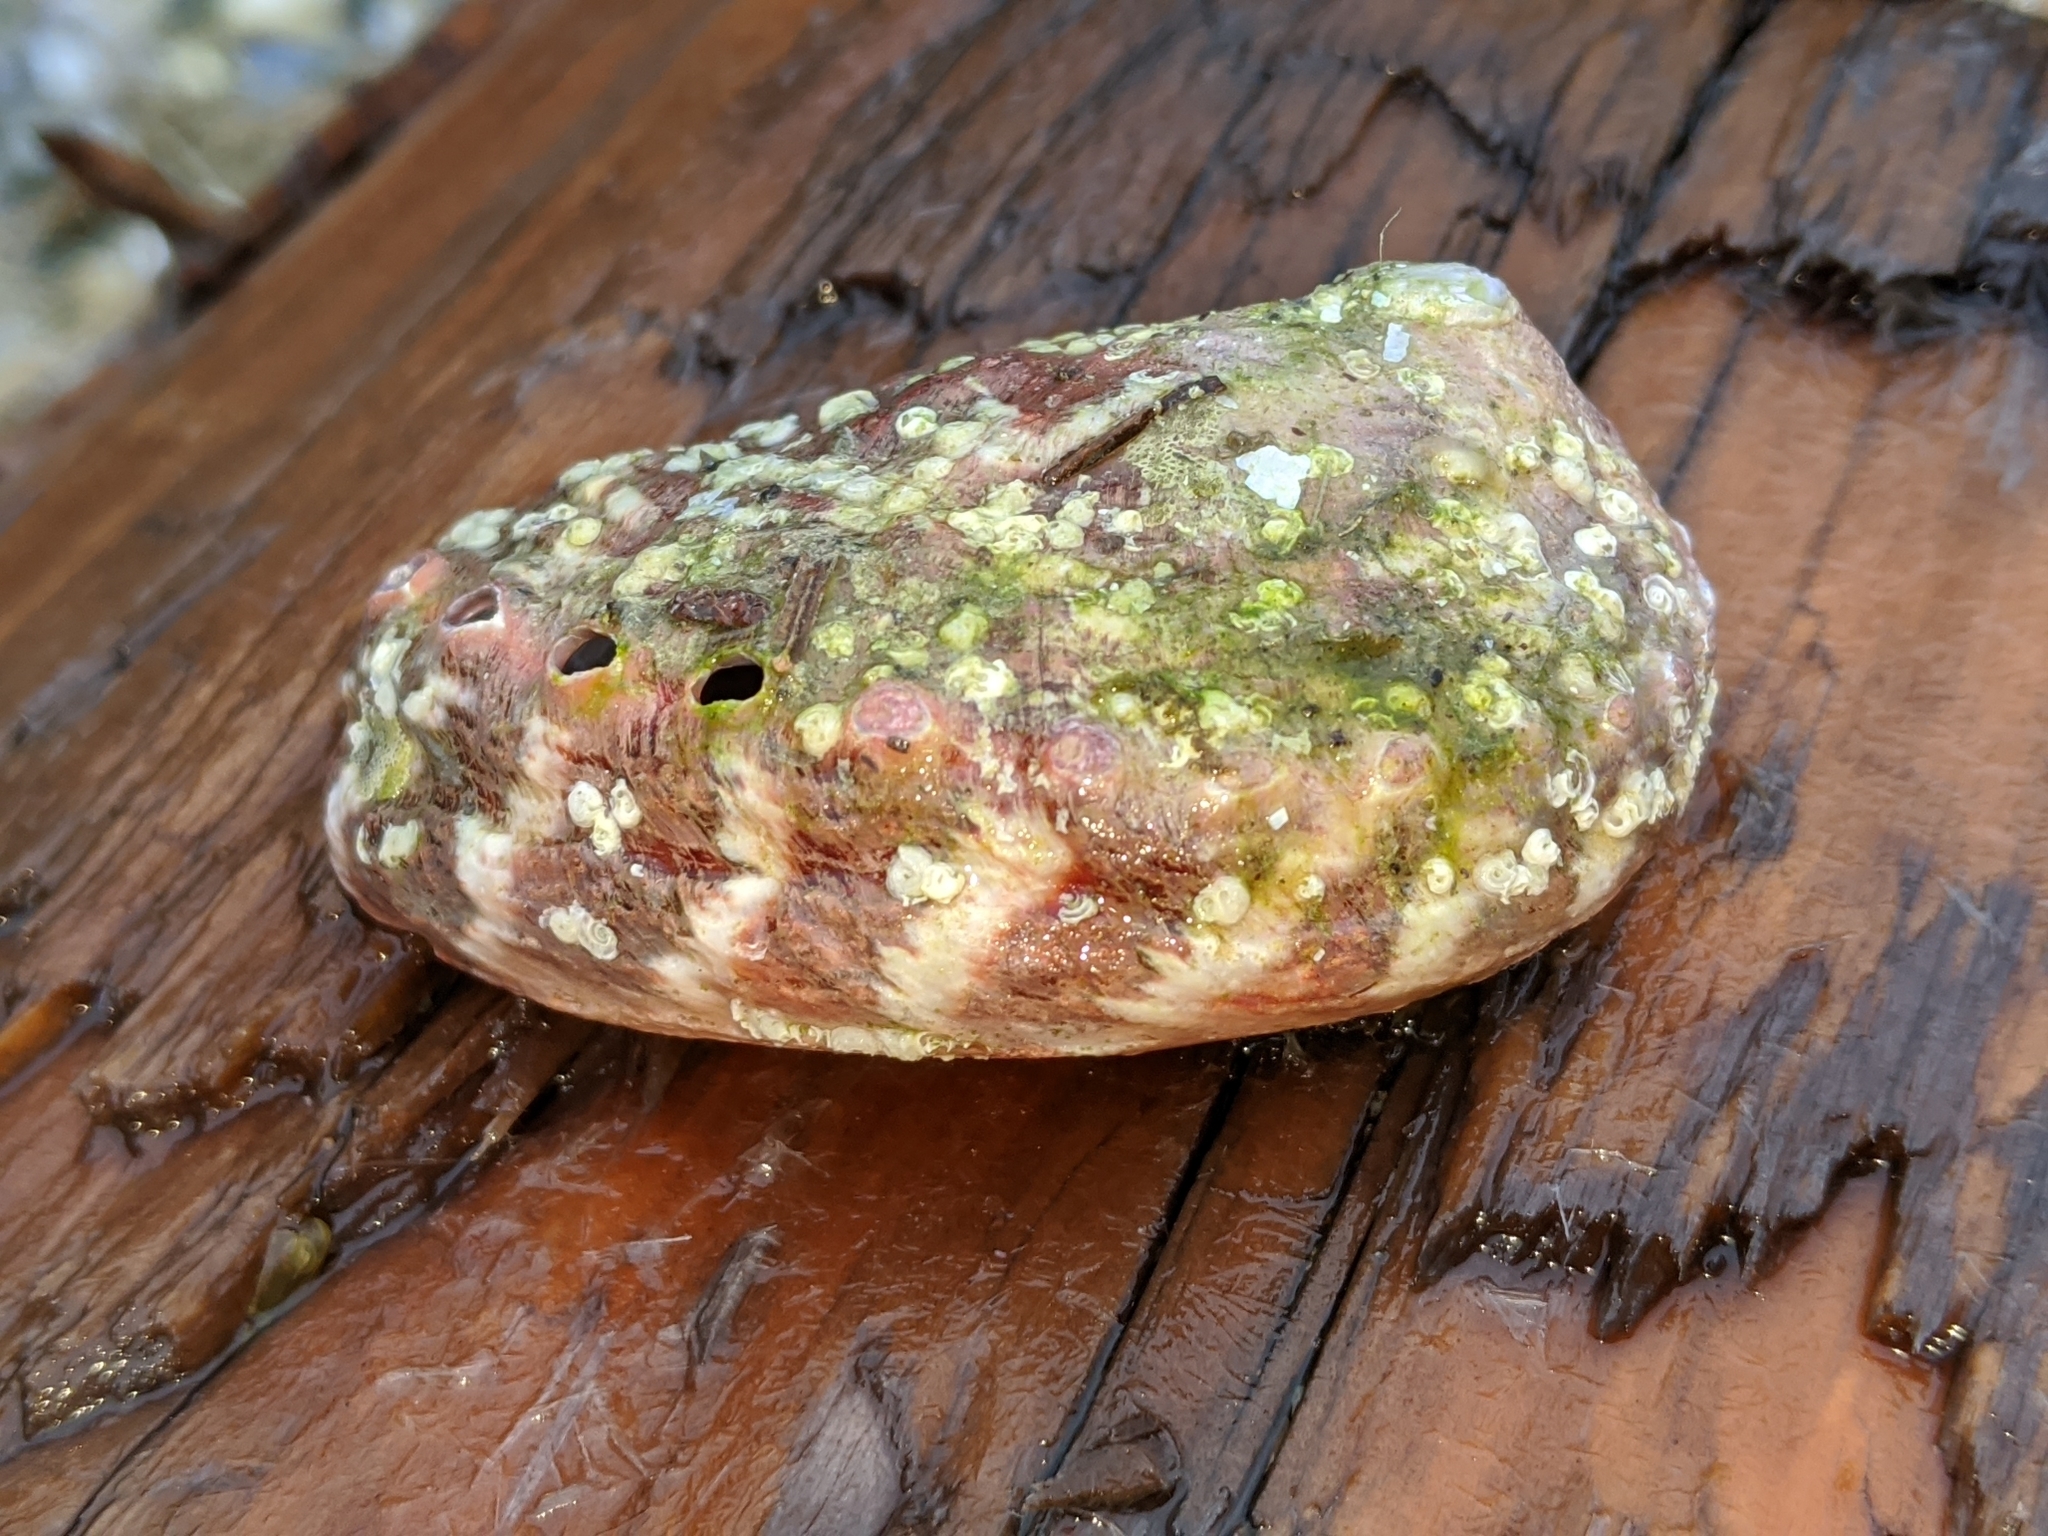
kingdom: Animalia
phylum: Mollusca
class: Gastropoda
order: Lepetellida
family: Haliotidae
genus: Haliotis
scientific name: Haliotis kamtschatkana
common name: Pinto abalone
